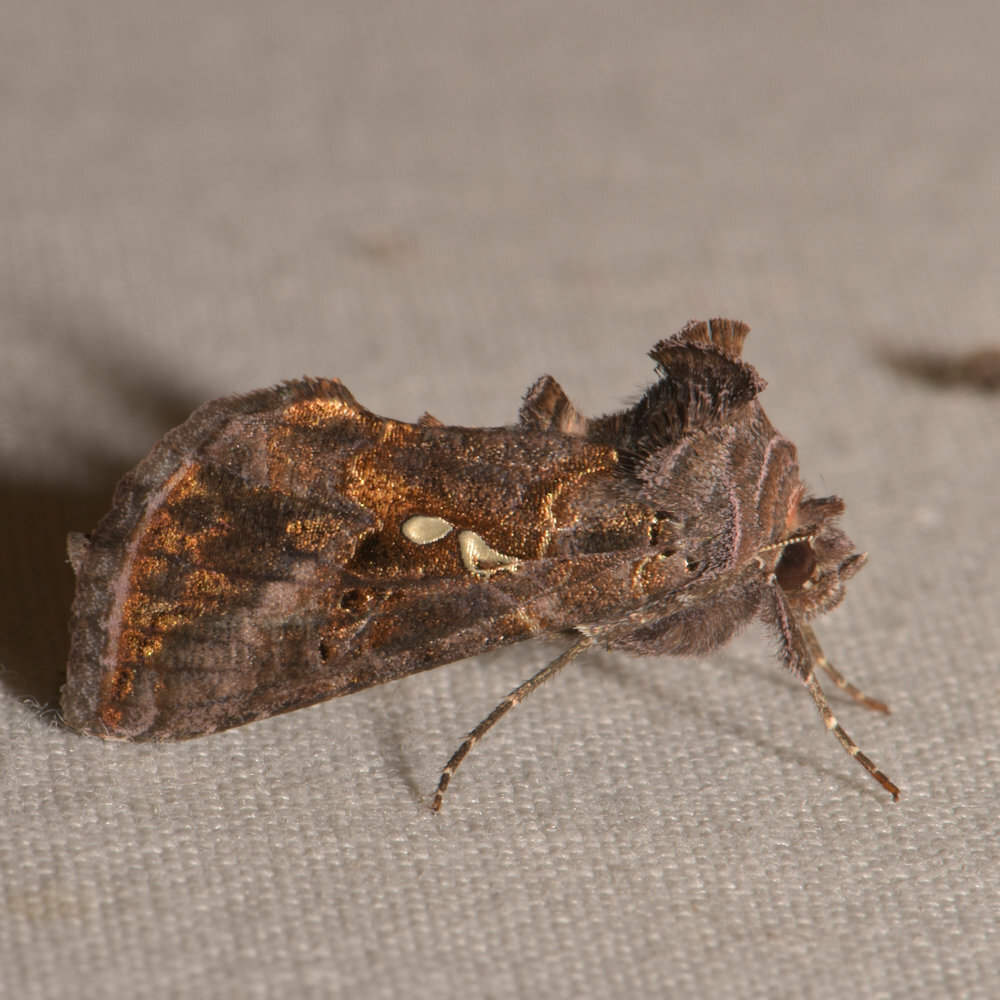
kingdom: Animalia
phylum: Arthropoda
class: Insecta
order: Lepidoptera
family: Noctuidae
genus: Autographa
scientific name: Autographa precationis
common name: Common looper moth
